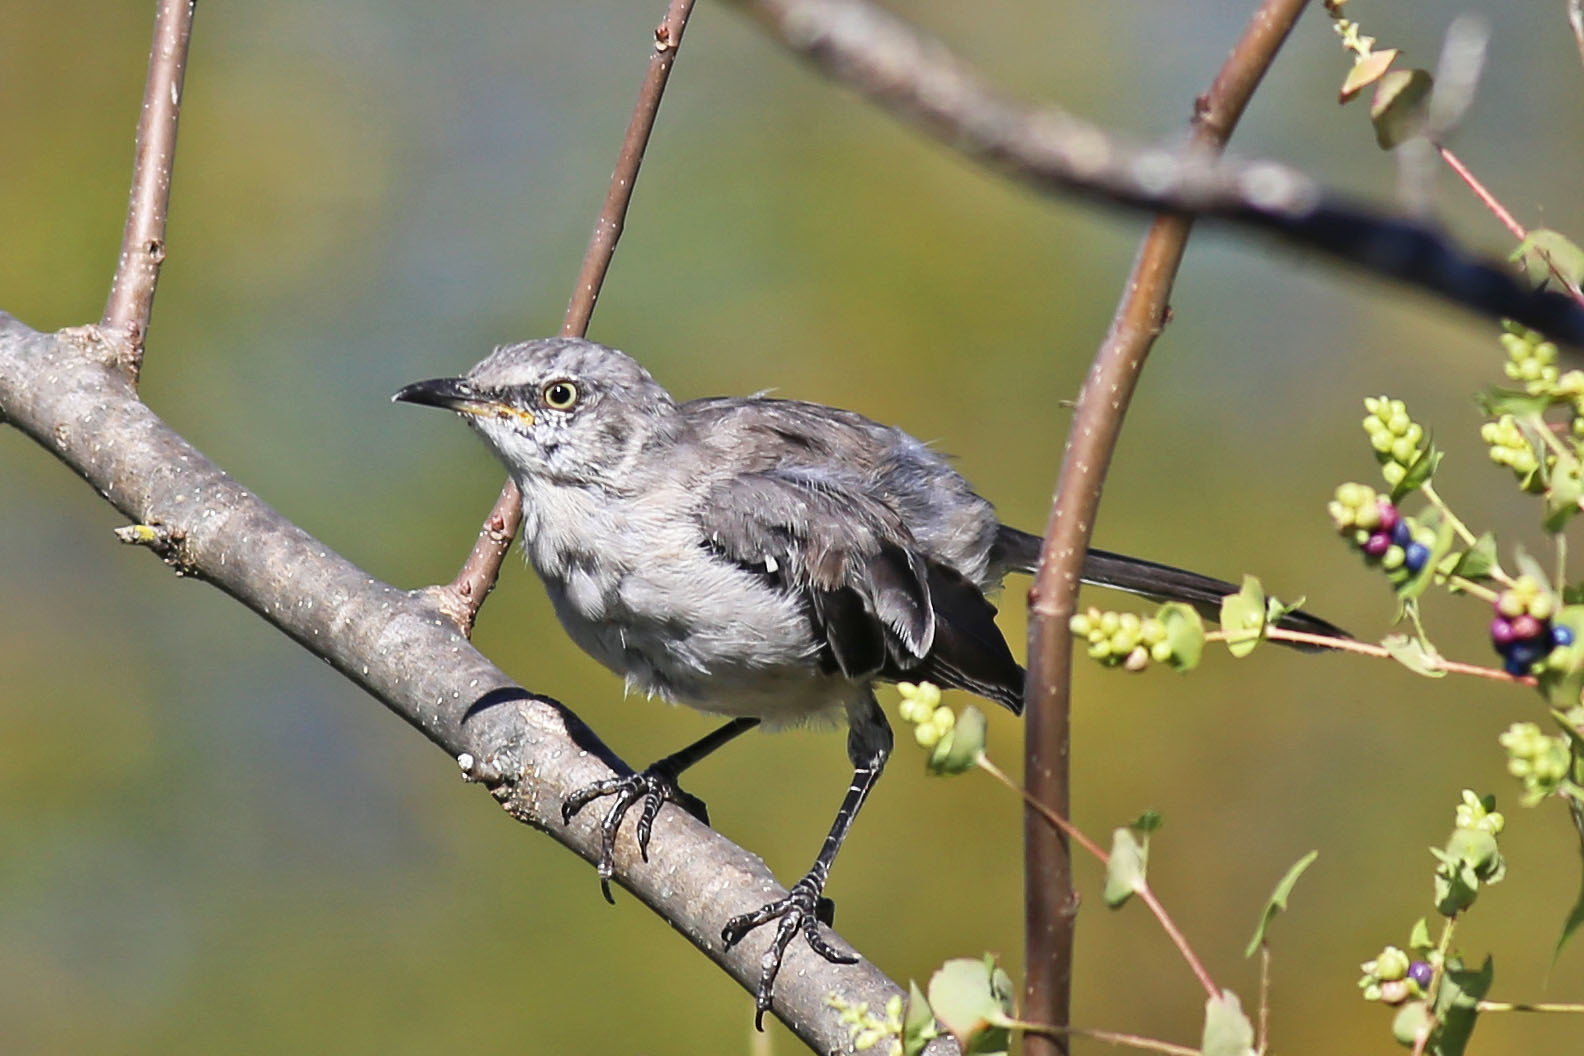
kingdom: Animalia
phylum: Chordata
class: Aves
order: Passeriformes
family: Mimidae
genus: Mimus
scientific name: Mimus polyglottos
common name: Northern mockingbird
